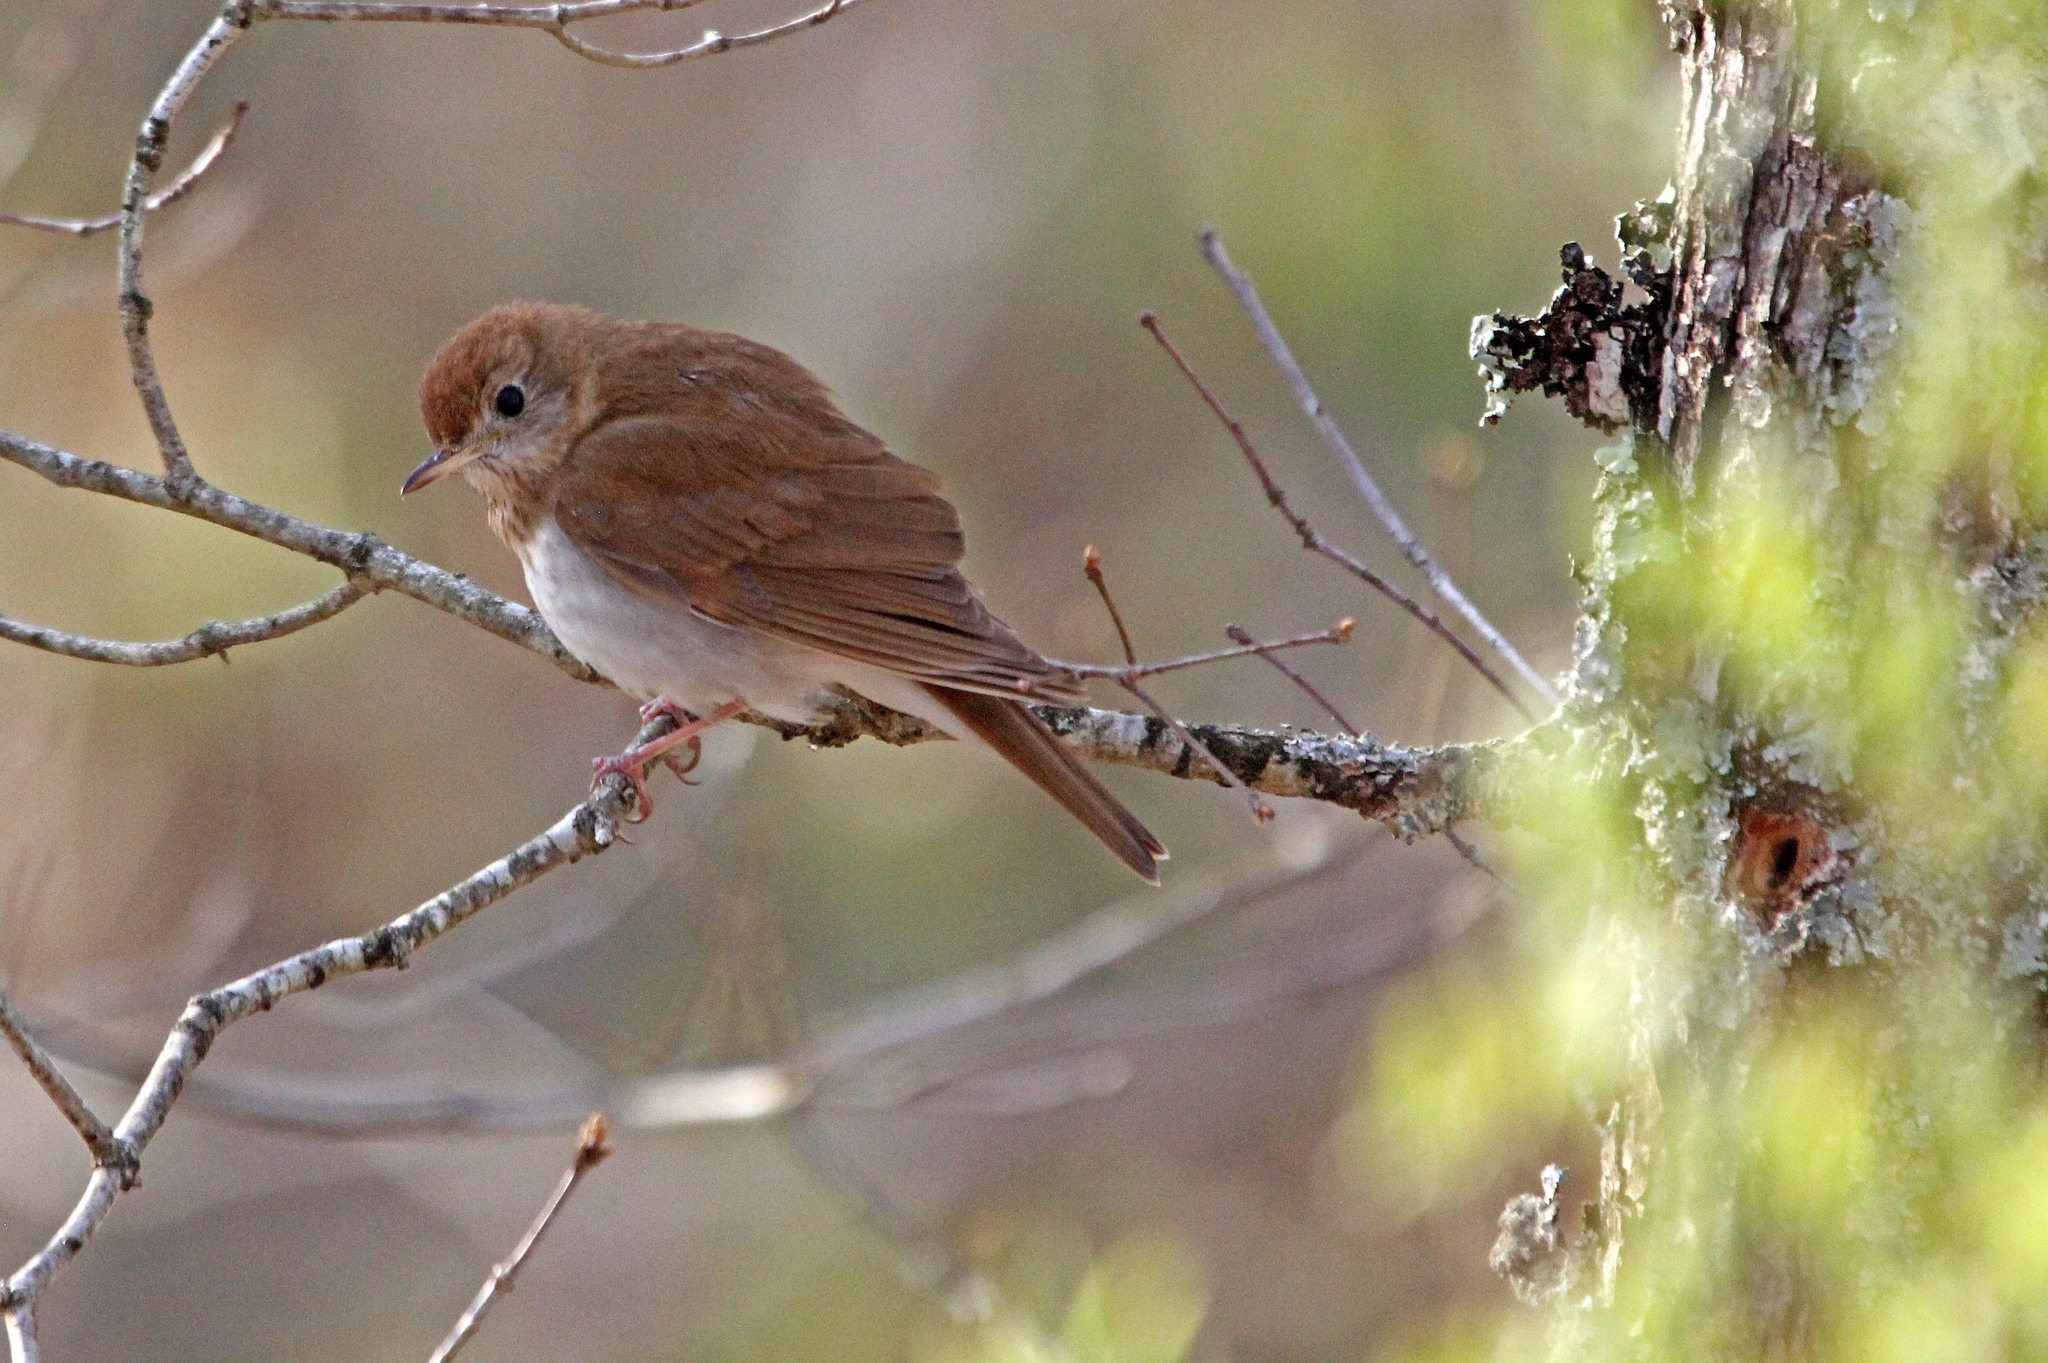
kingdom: Animalia
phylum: Chordata
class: Aves
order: Passeriformes
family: Turdidae
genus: Catharus
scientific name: Catharus fuscescens
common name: Veery
